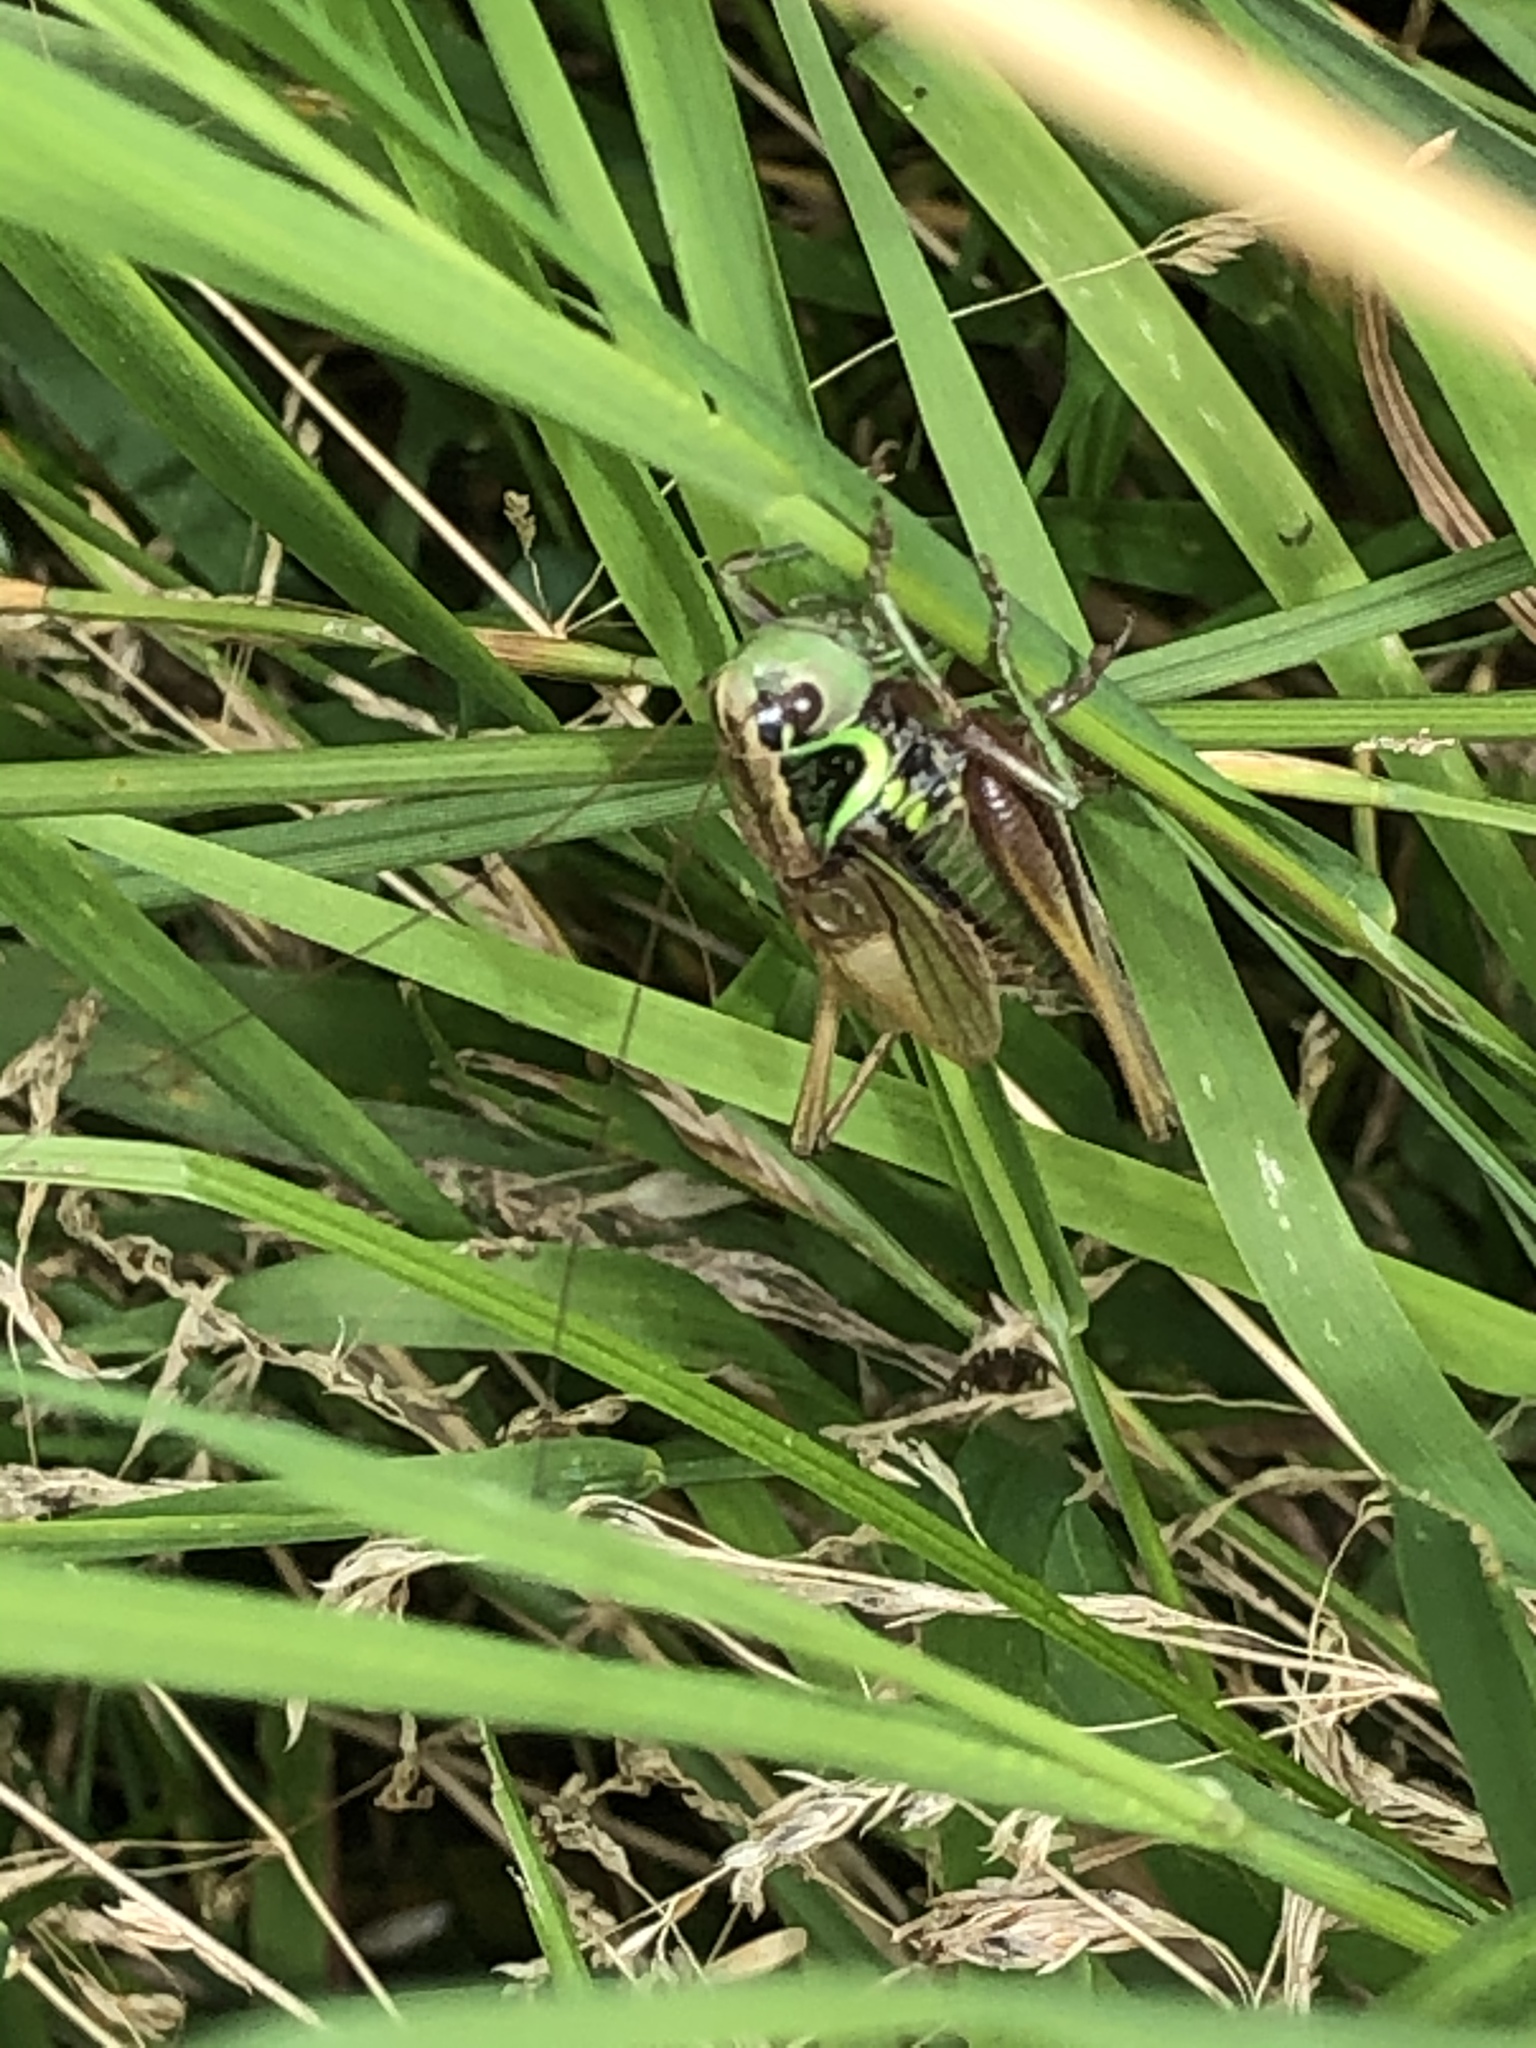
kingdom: Animalia
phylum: Arthropoda
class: Insecta
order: Orthoptera
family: Tettigoniidae
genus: Roeseliana
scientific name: Roeseliana roeselii
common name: Roesel's bush cricket
